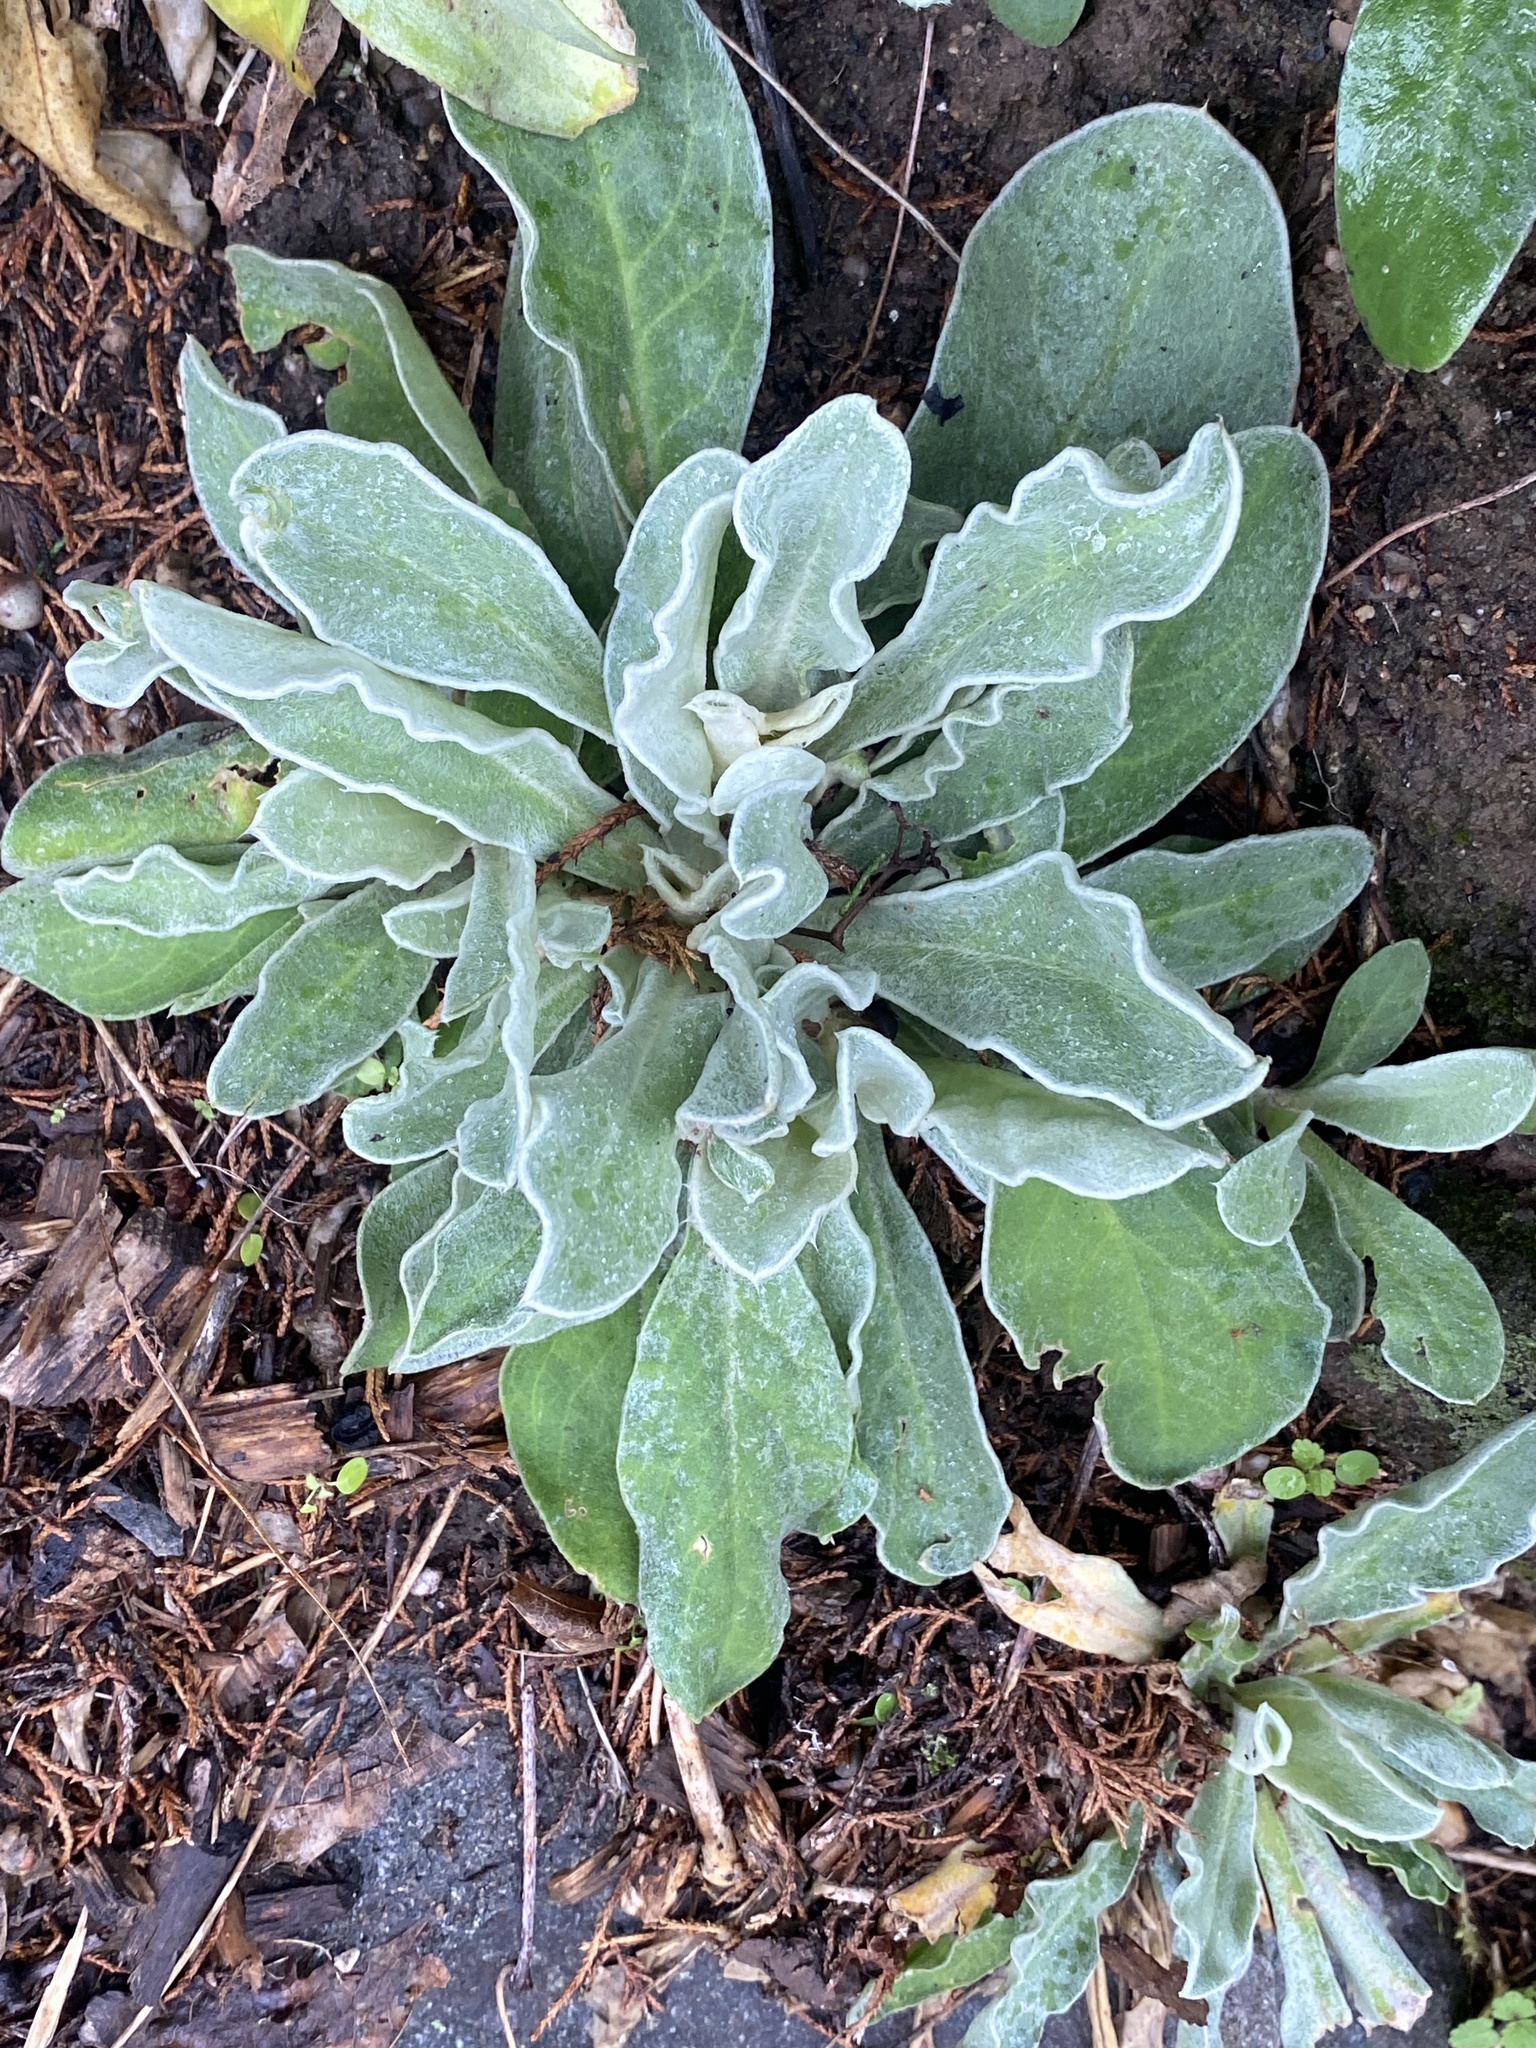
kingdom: Plantae
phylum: Tracheophyta
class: Magnoliopsida
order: Caryophyllales
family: Caryophyllaceae
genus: Silene
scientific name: Silene coronaria
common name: Rose campion
